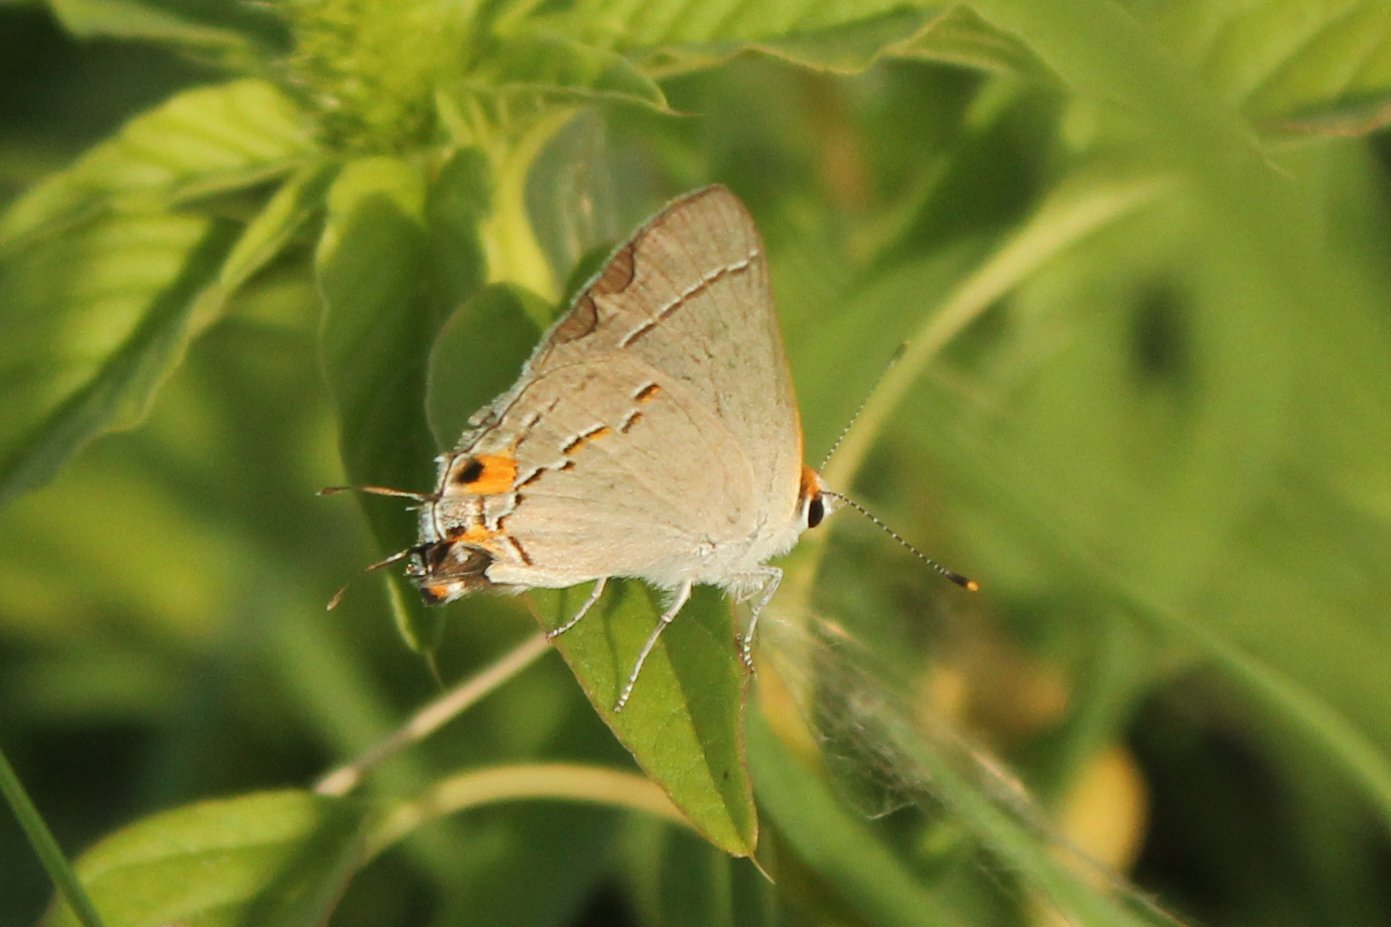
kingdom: Animalia
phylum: Arthropoda
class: Insecta
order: Lepidoptera
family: Lycaenidae
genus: Strymon
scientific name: Strymon melinus
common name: Gray hairstreak
